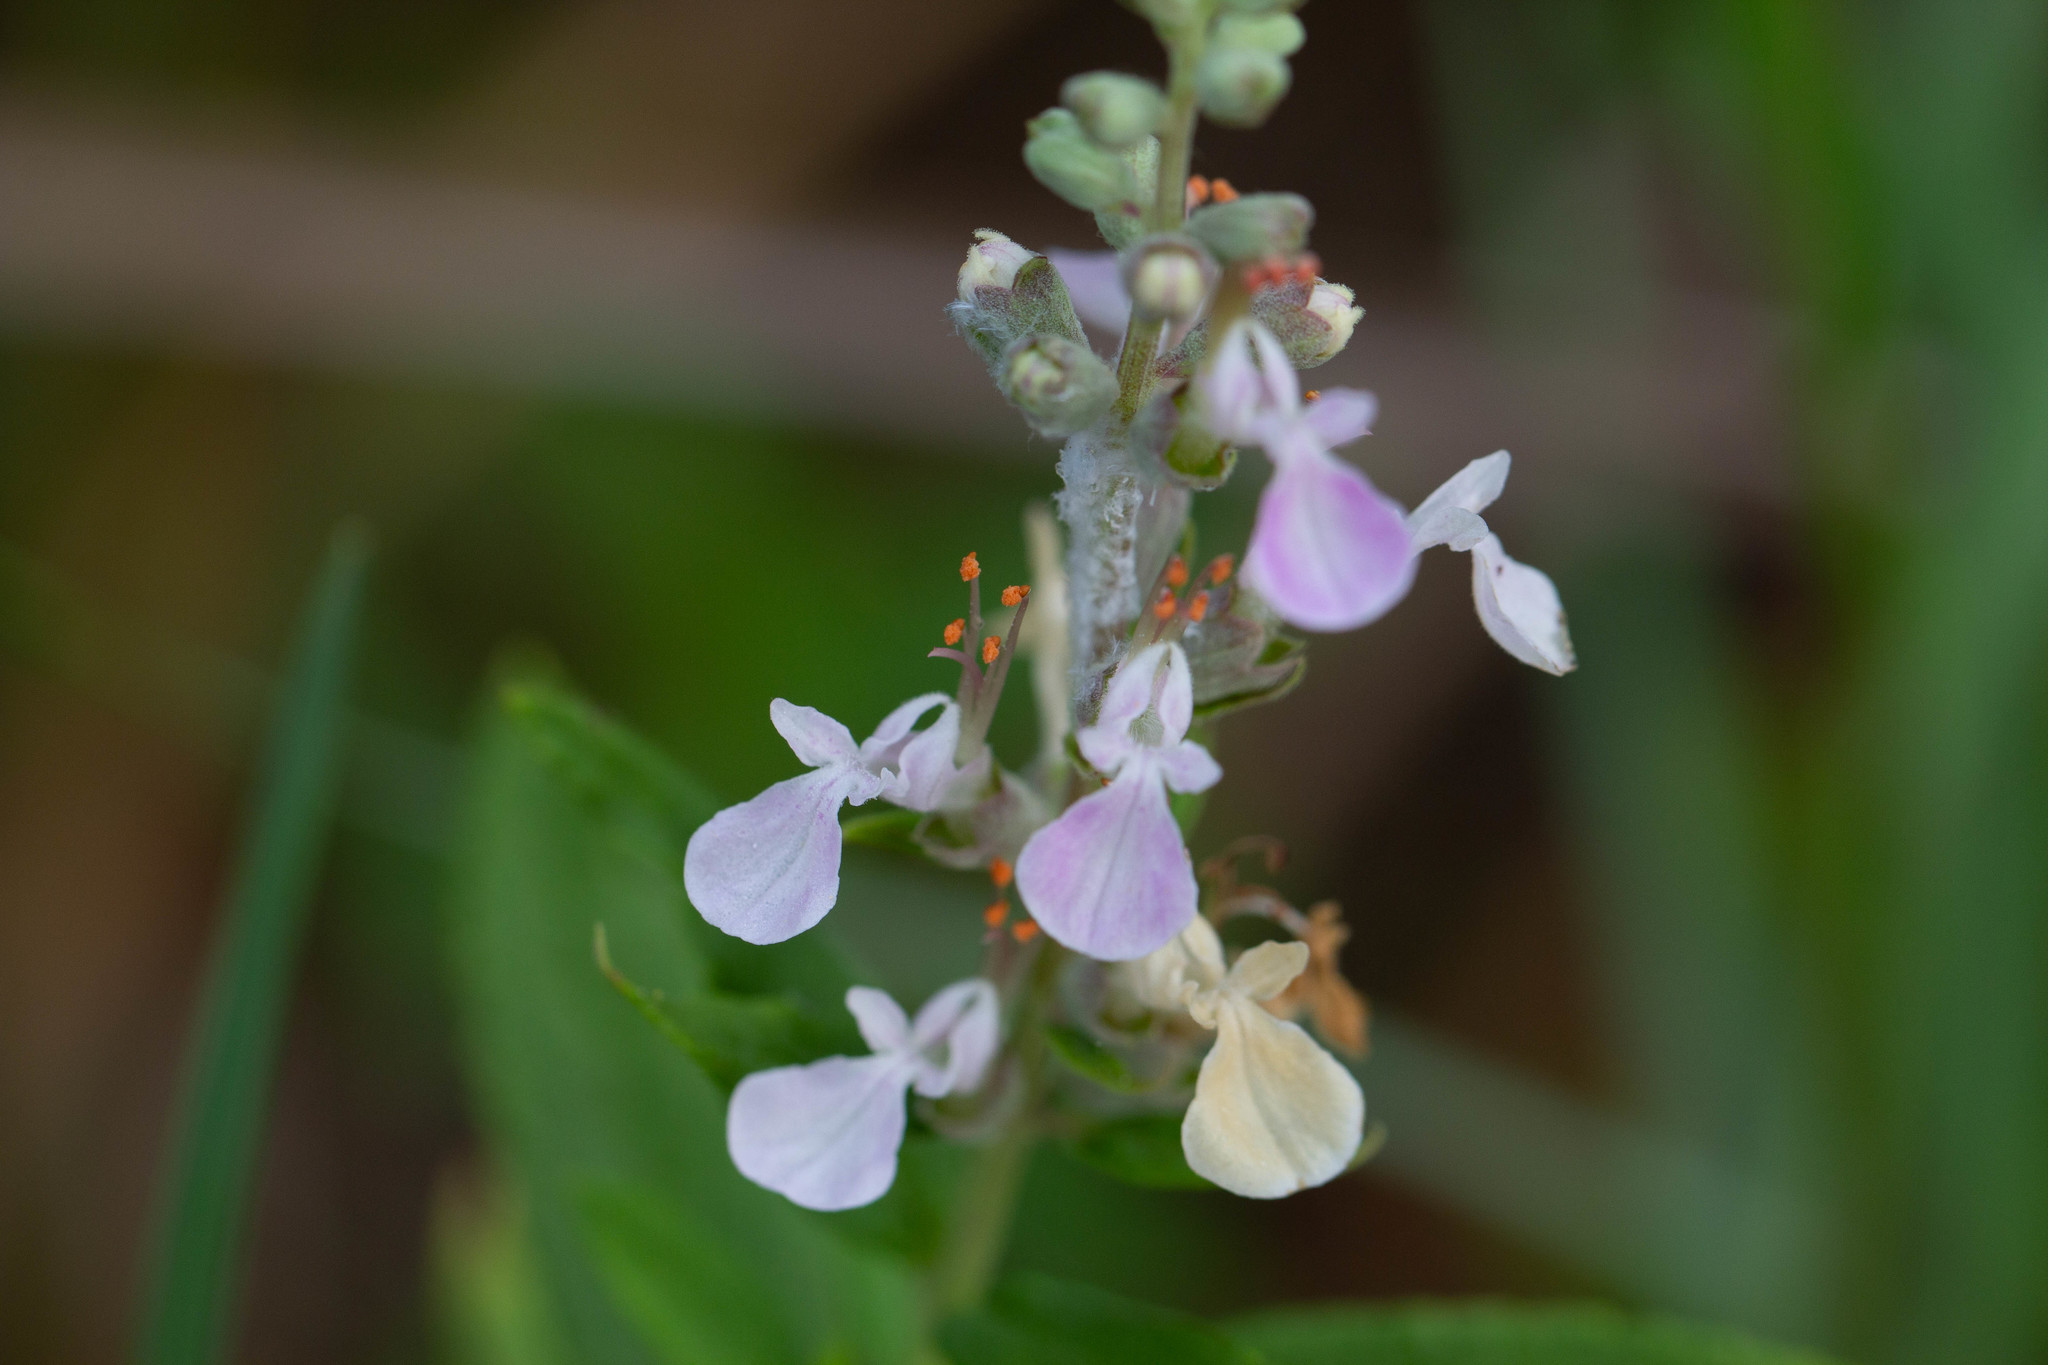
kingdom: Plantae
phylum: Tracheophyta
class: Magnoliopsida
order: Lamiales
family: Lamiaceae
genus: Teucrium
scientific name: Teucrium canadense
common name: American germander
